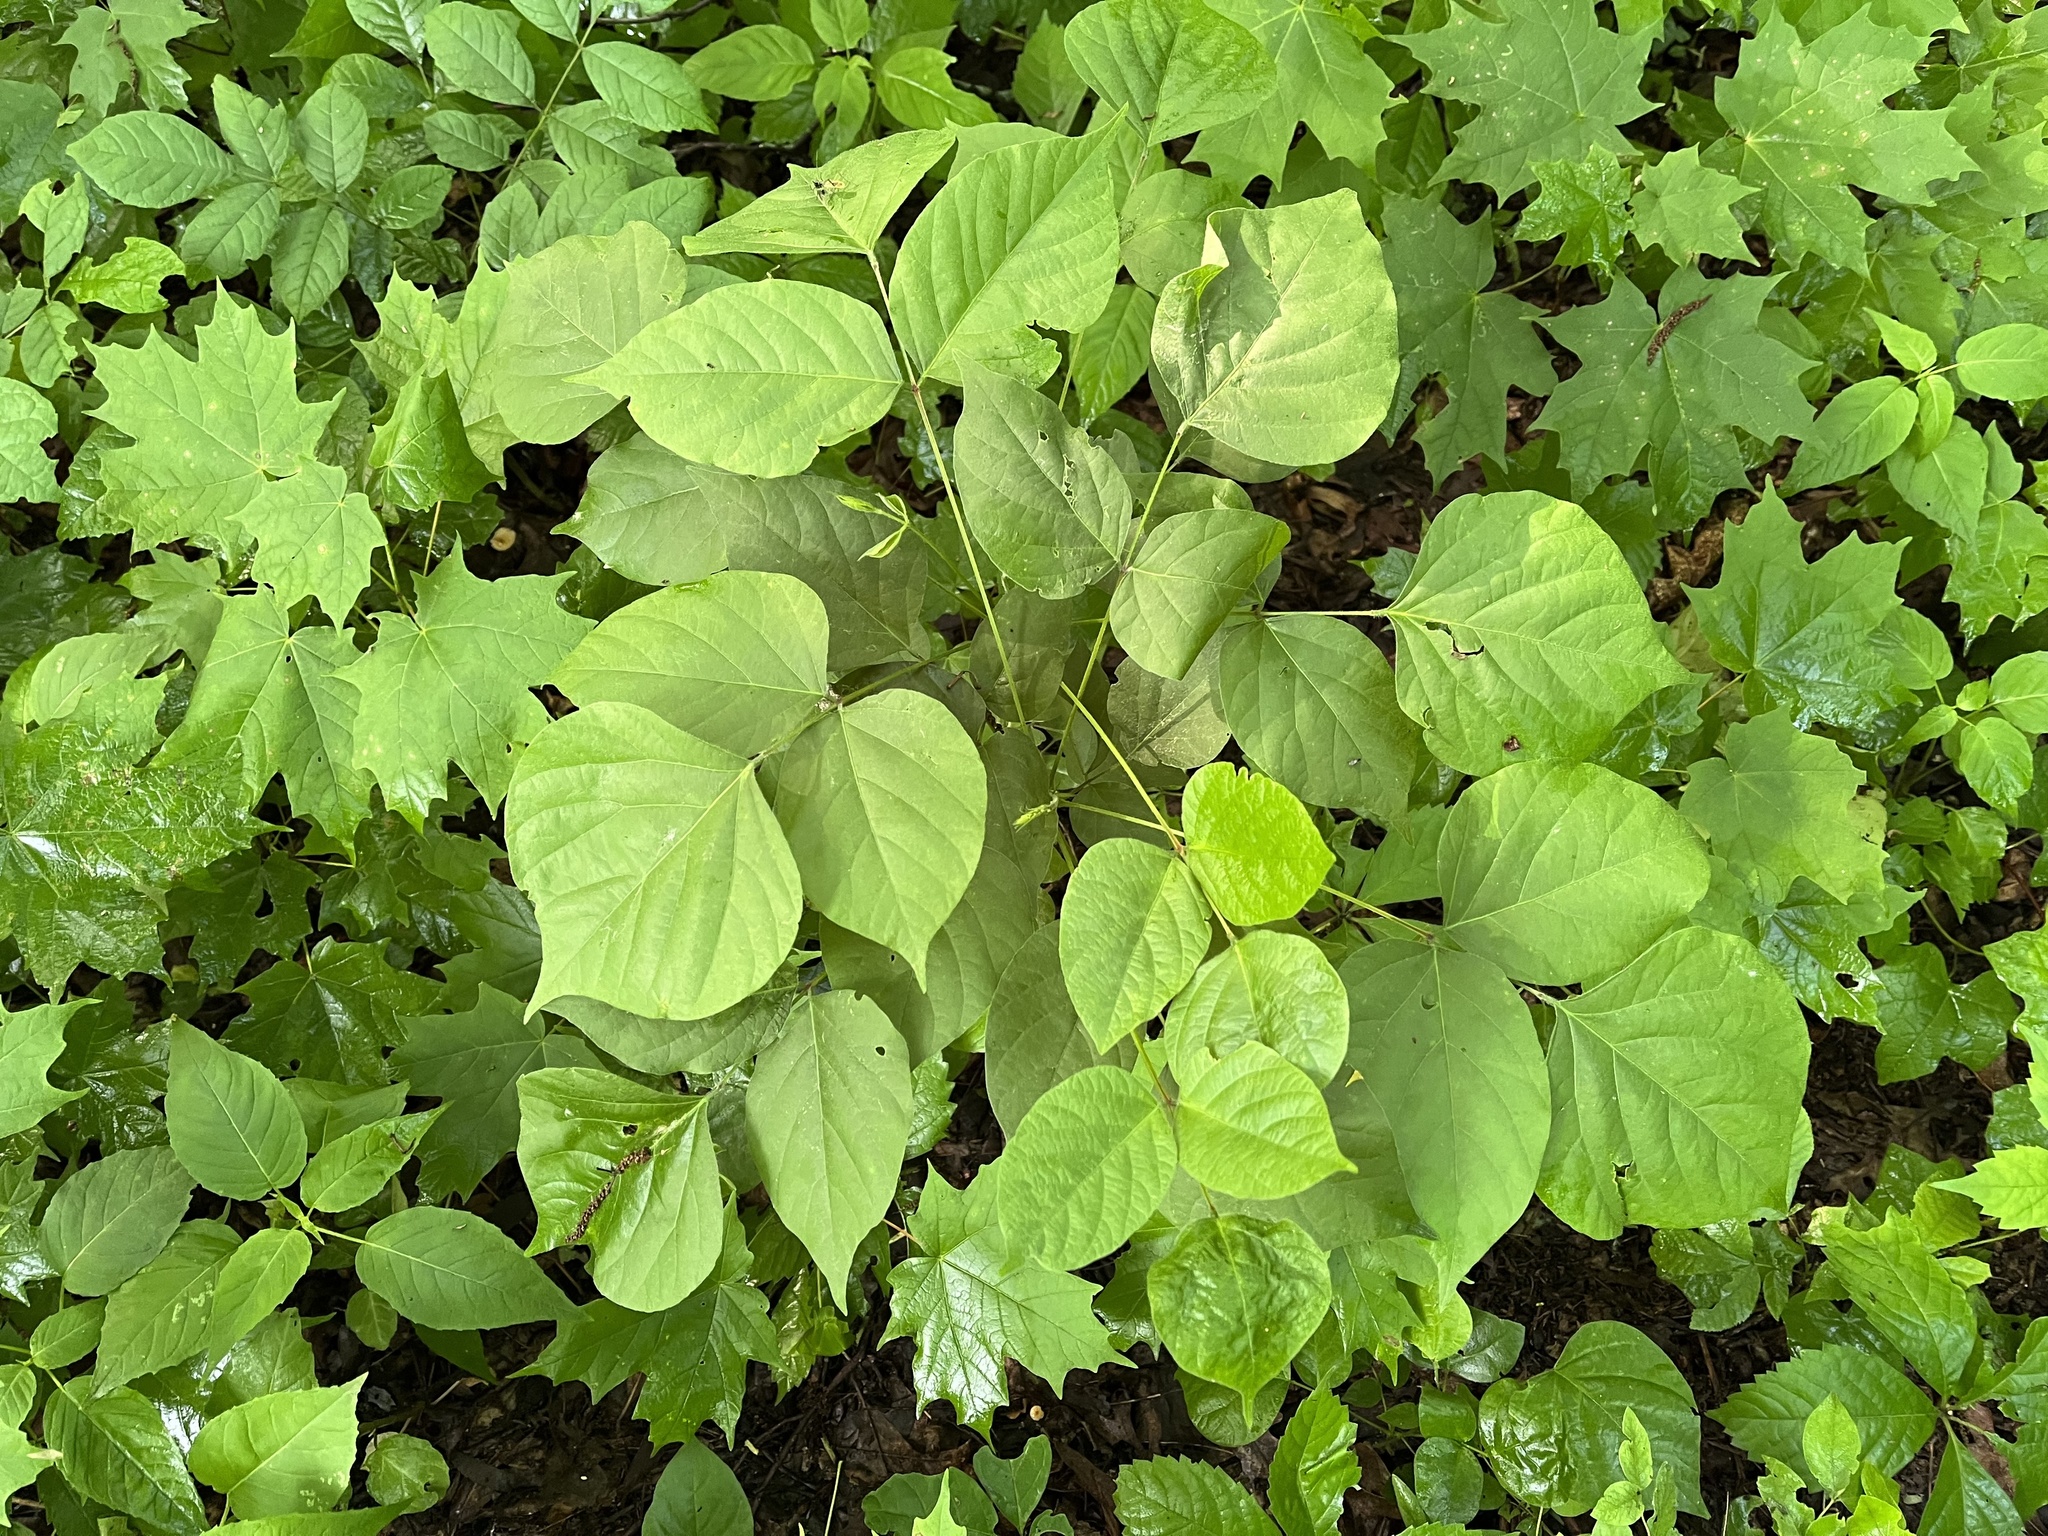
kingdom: Plantae
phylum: Tracheophyta
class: Magnoliopsida
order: Fabales
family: Fabaceae
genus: Hylodesmum
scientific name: Hylodesmum glutinosum
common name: Clustered-leaved tick-trefoil
